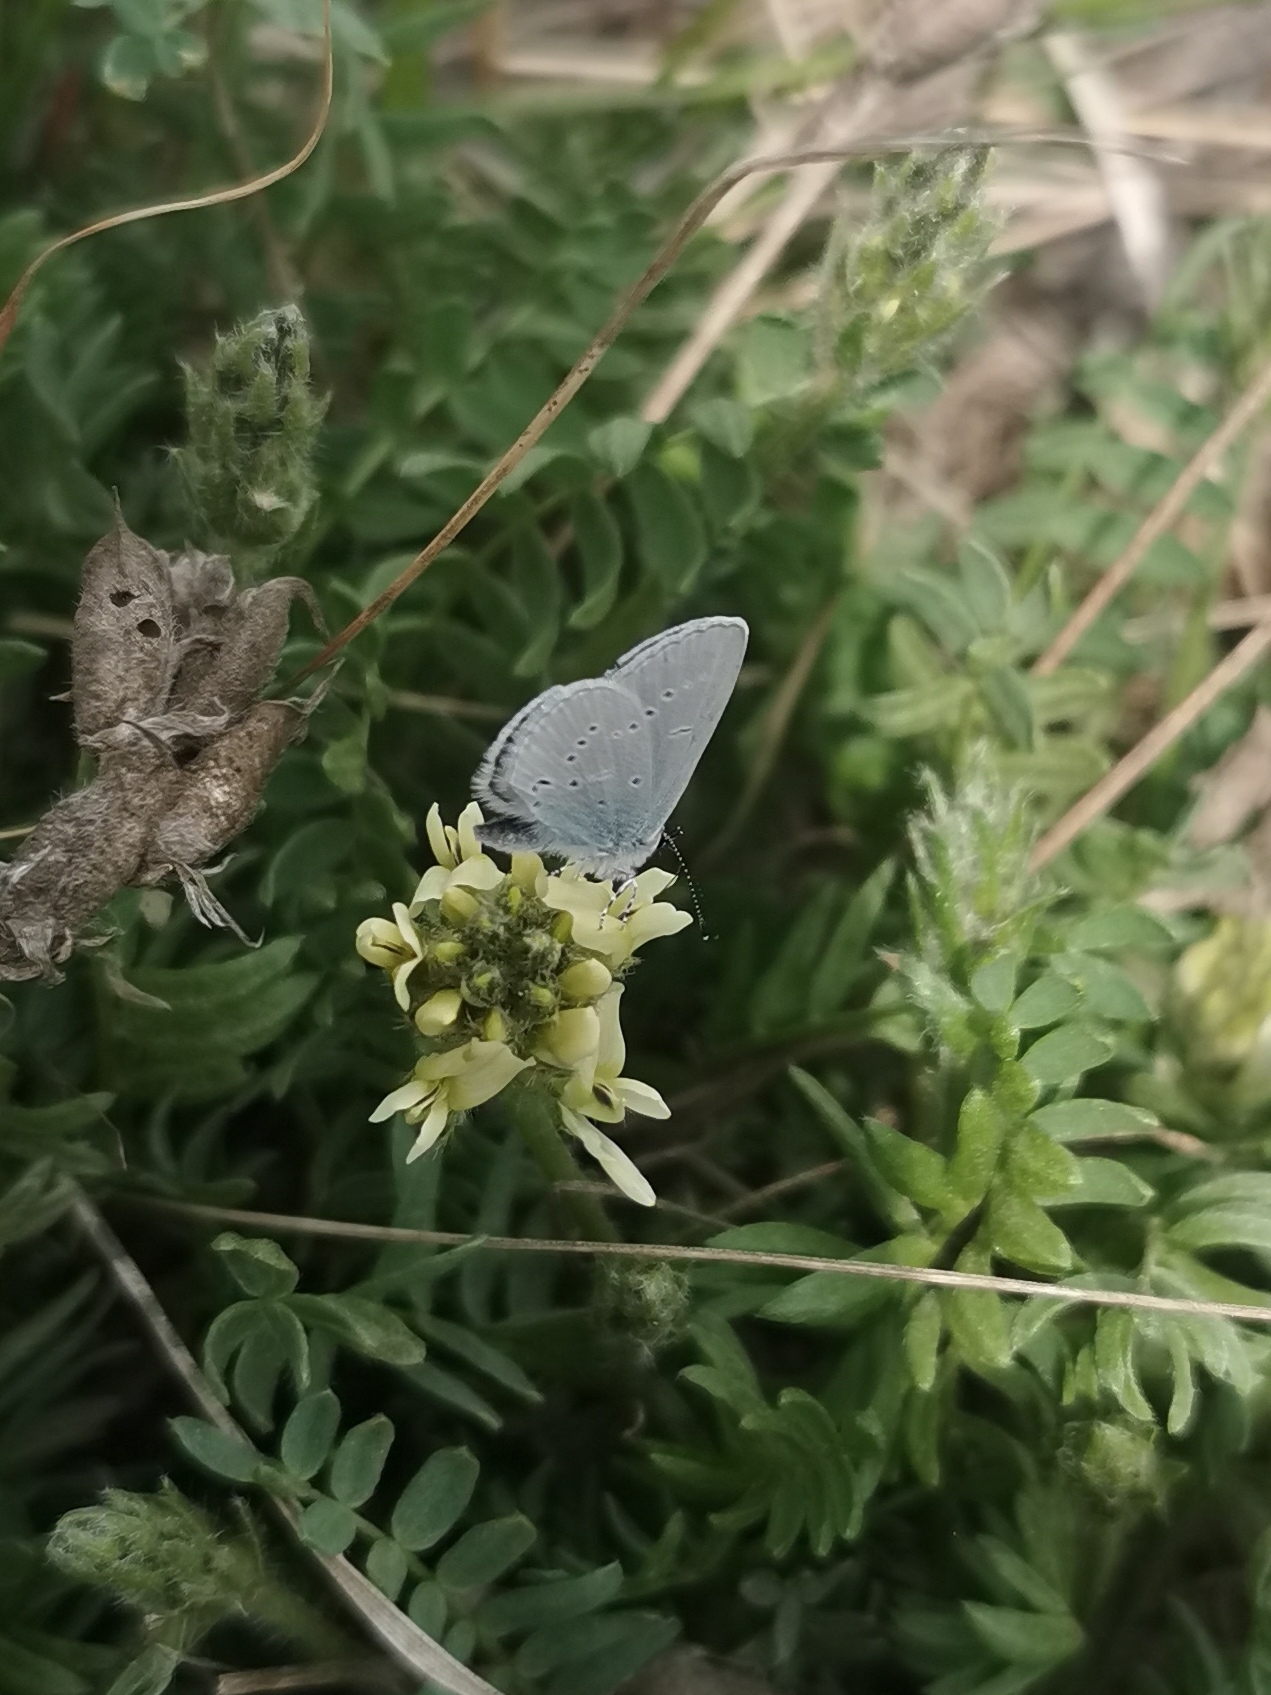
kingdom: Animalia
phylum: Arthropoda
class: Insecta
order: Lepidoptera
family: Lycaenidae
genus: Cupido
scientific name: Cupido minimus
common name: Small blue
